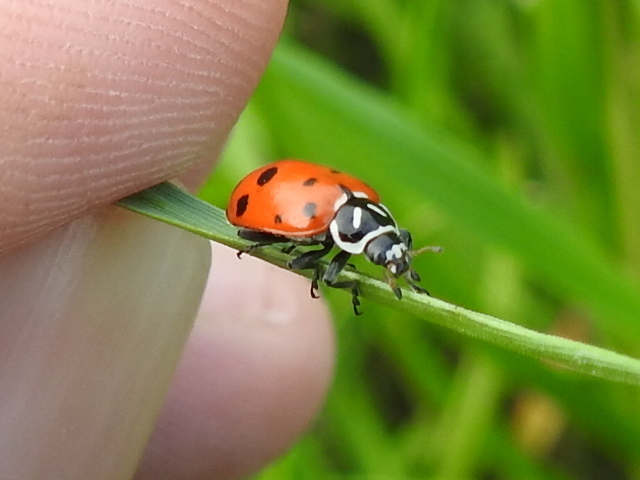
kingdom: Animalia
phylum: Arthropoda
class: Insecta
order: Coleoptera
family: Coccinellidae
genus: Hippodamia
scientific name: Hippodamia convergens
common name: Convergent lady beetle
